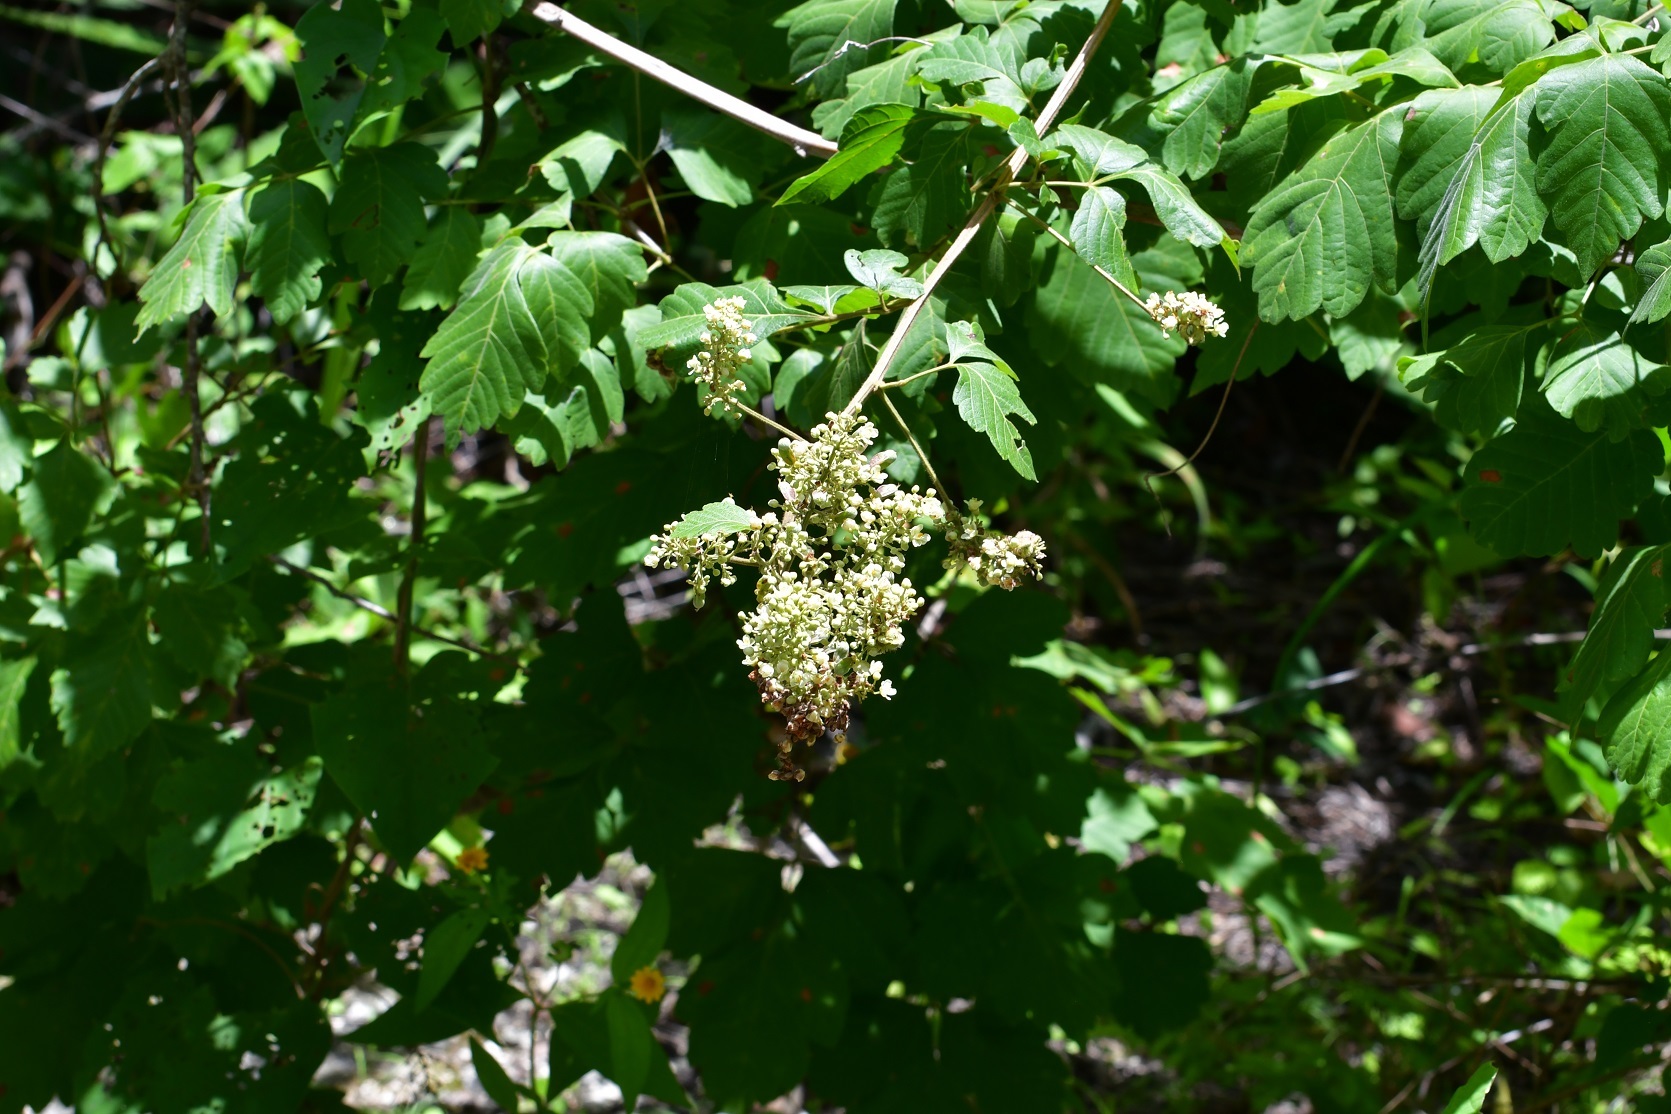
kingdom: Plantae
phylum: Tracheophyta
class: Magnoliopsida
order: Sapindales
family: Sapindaceae
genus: Serjania
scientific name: Serjania racemosa
